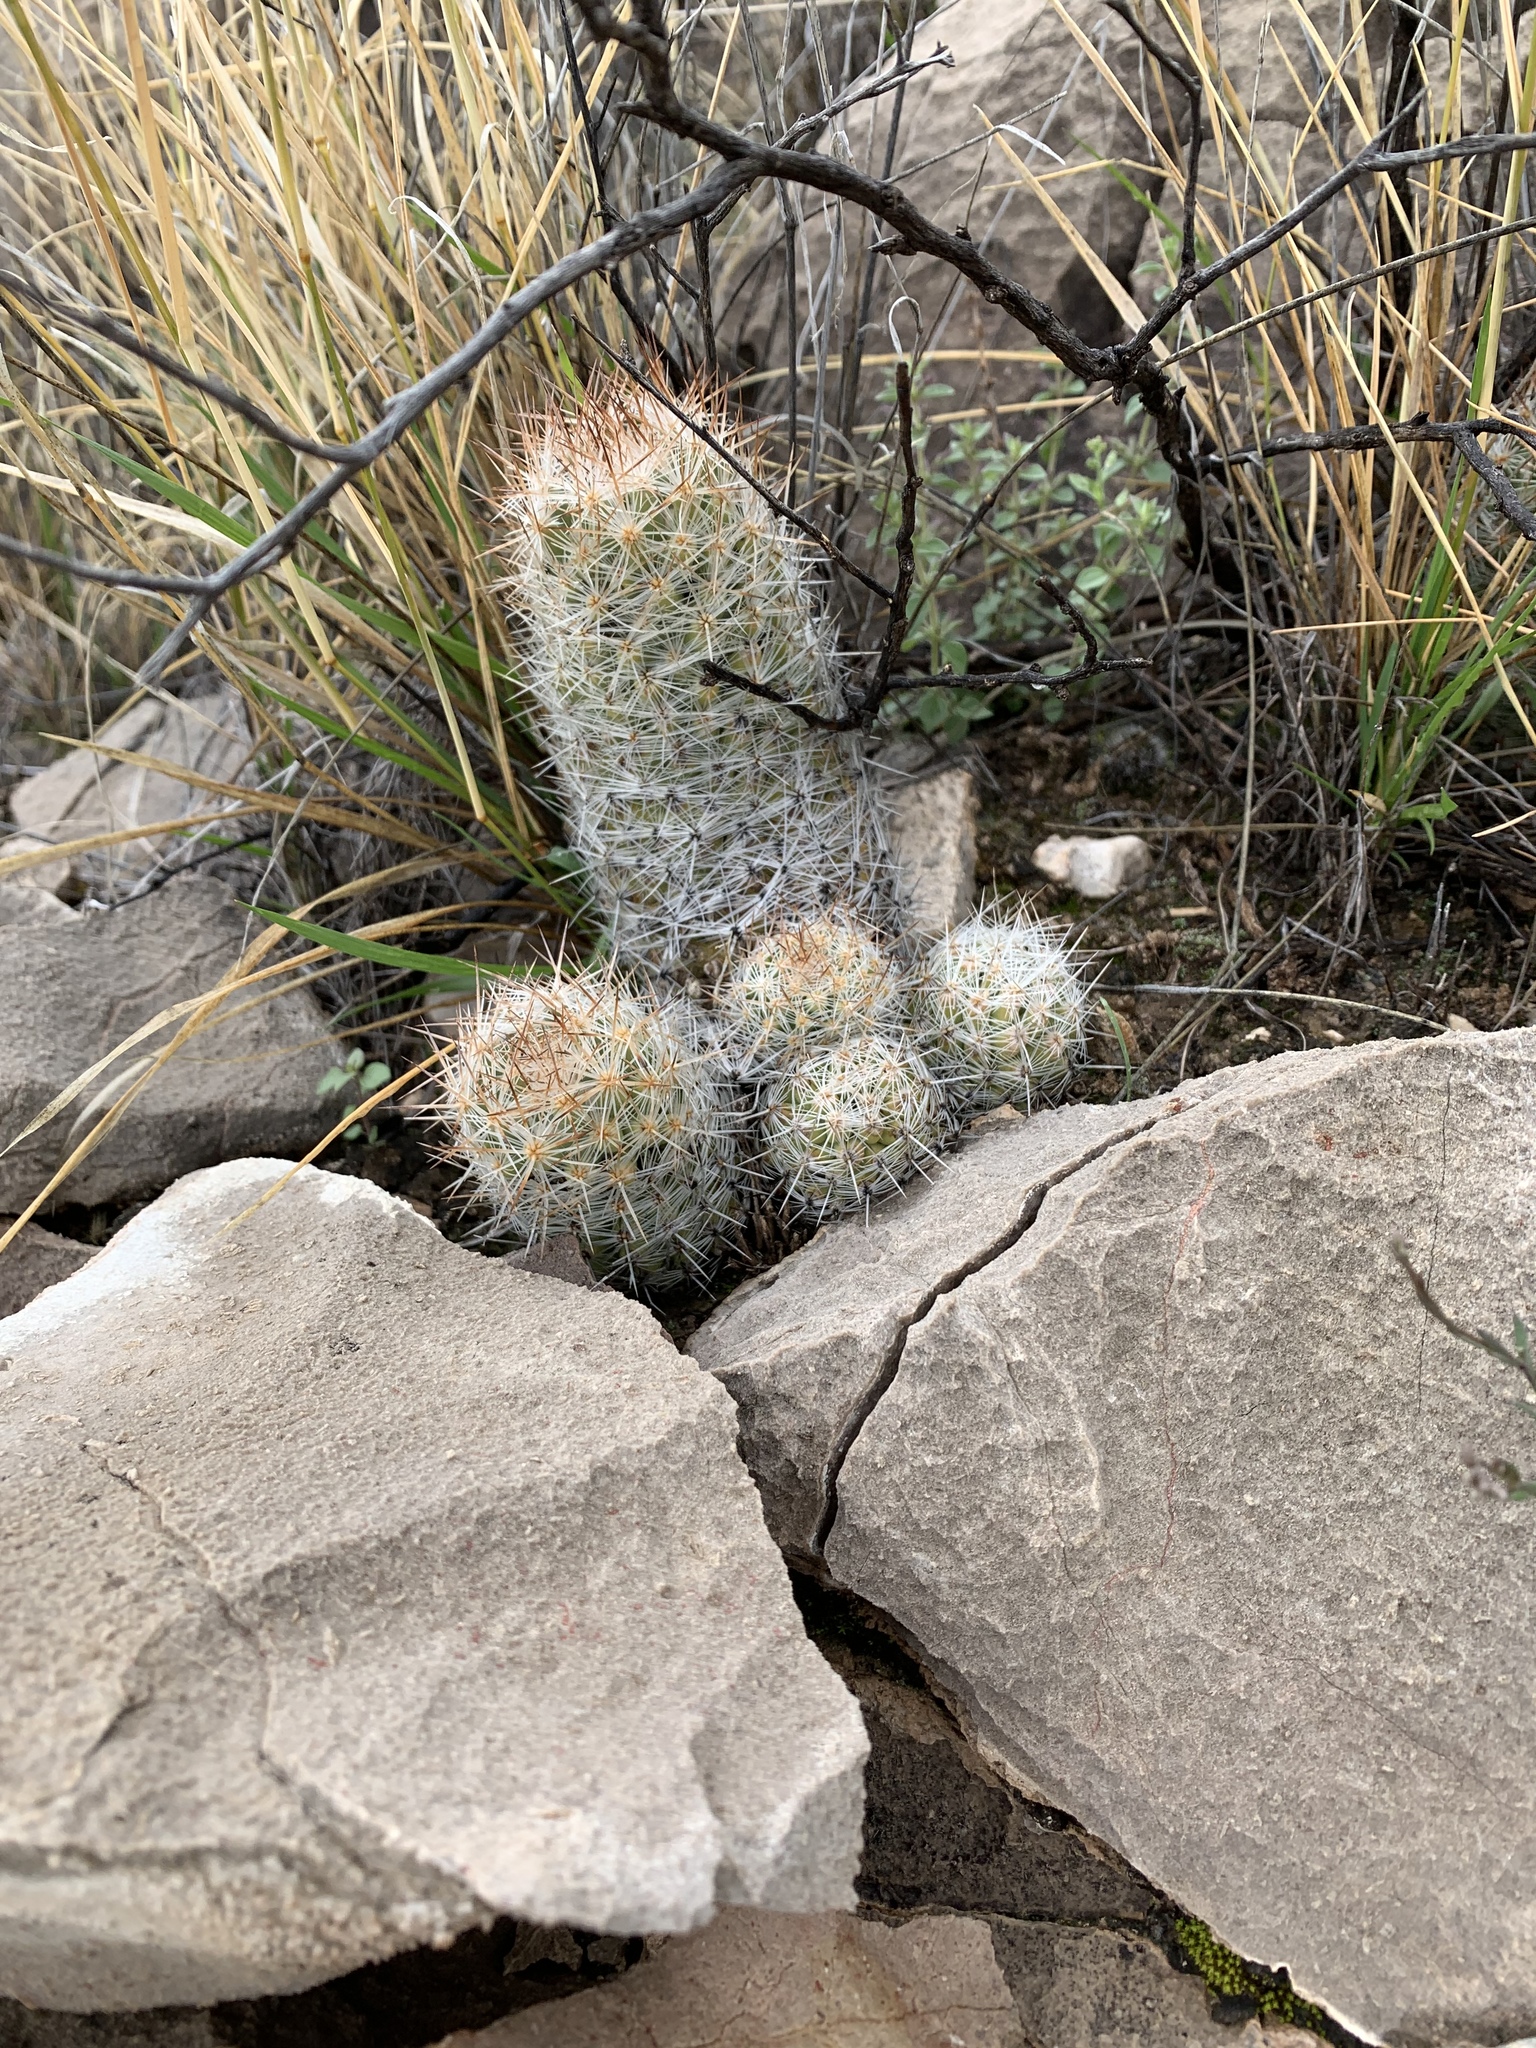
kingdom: Plantae
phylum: Tracheophyta
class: Magnoliopsida
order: Caryophyllales
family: Cactaceae
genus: Pelecyphora
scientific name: Pelecyphora tuberculosa
